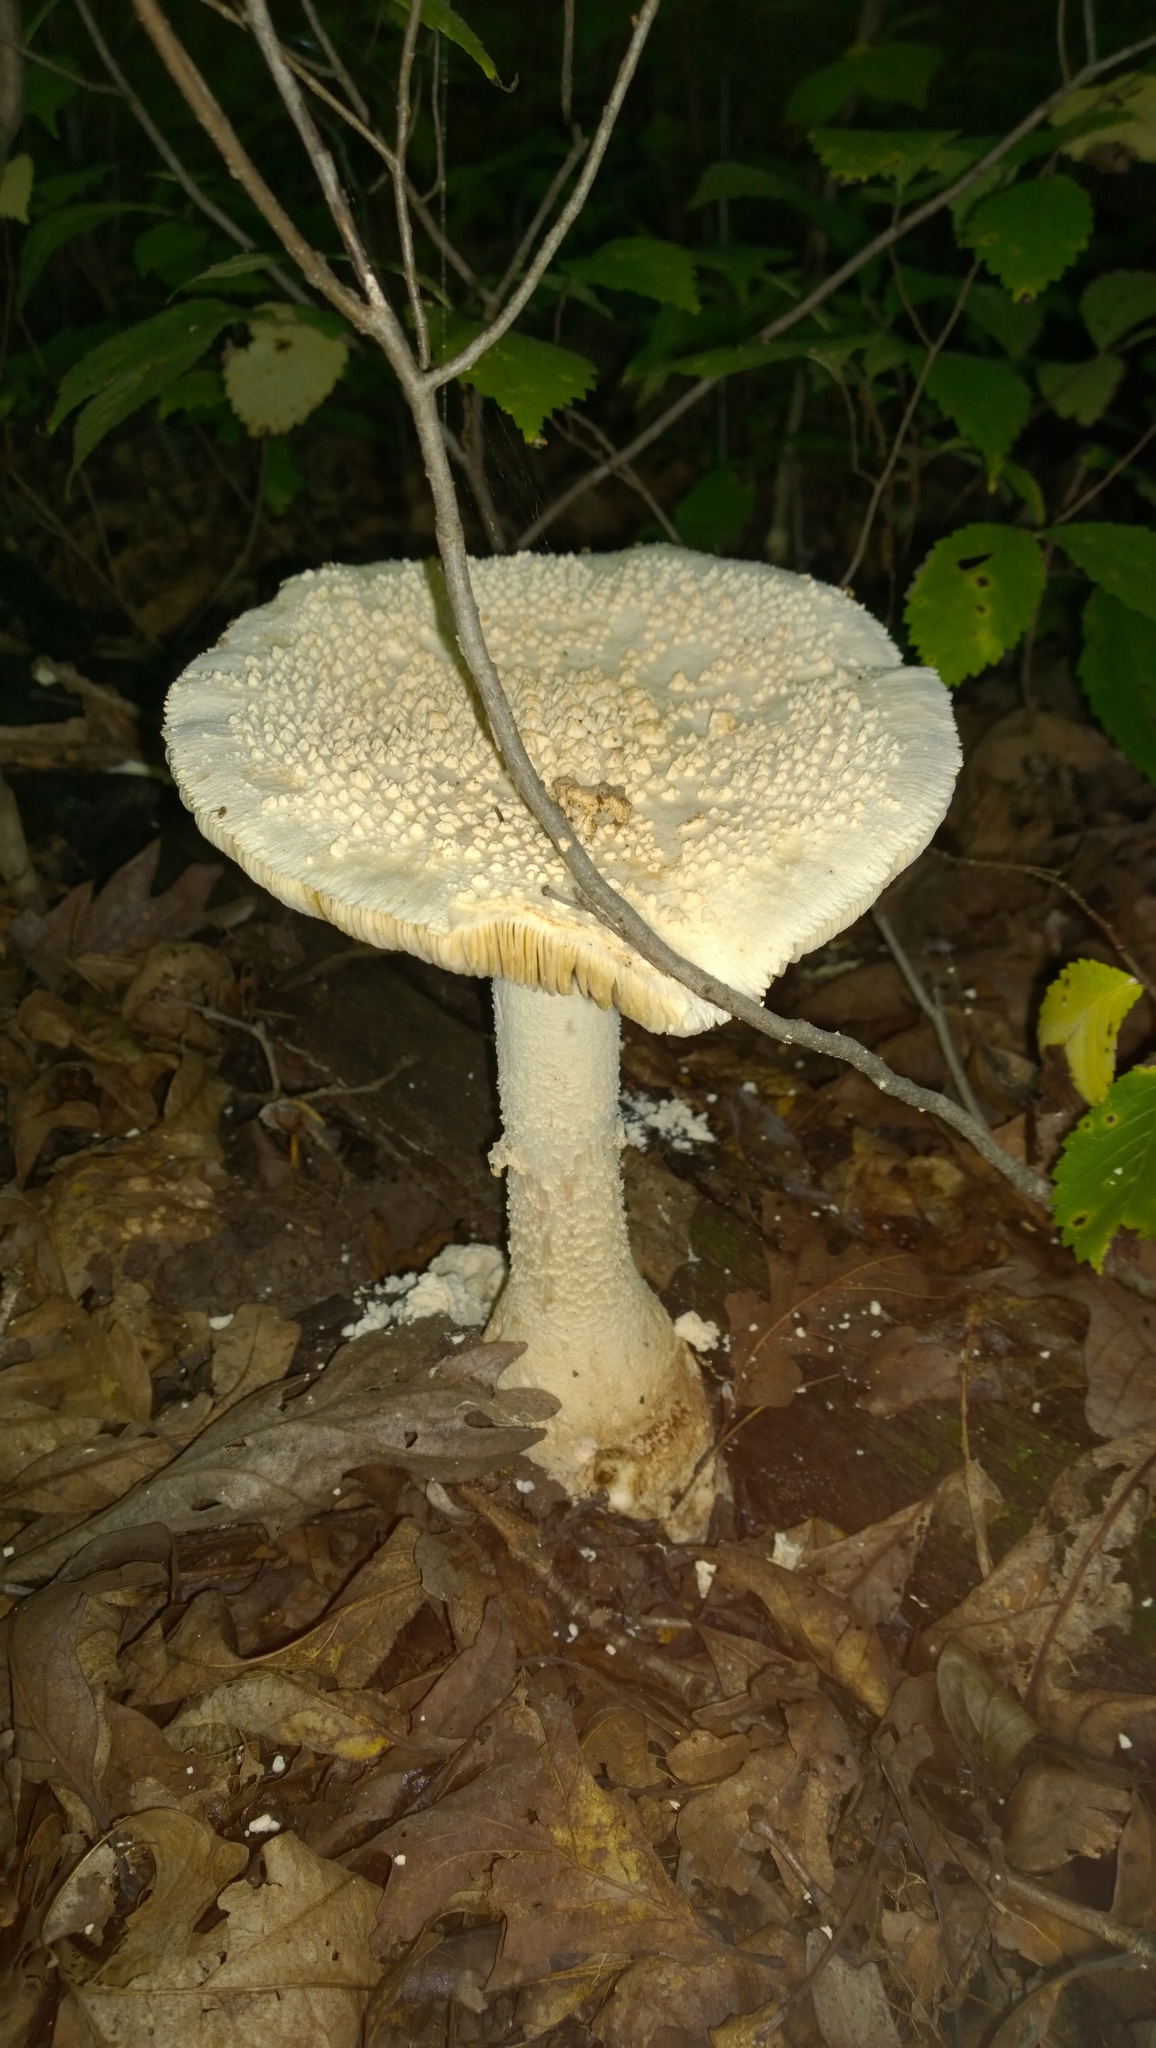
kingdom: Fungi
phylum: Basidiomycota
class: Agaricomycetes
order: Agaricales
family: Amanitaceae
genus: Amanita
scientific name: Amanita rhopalopus
